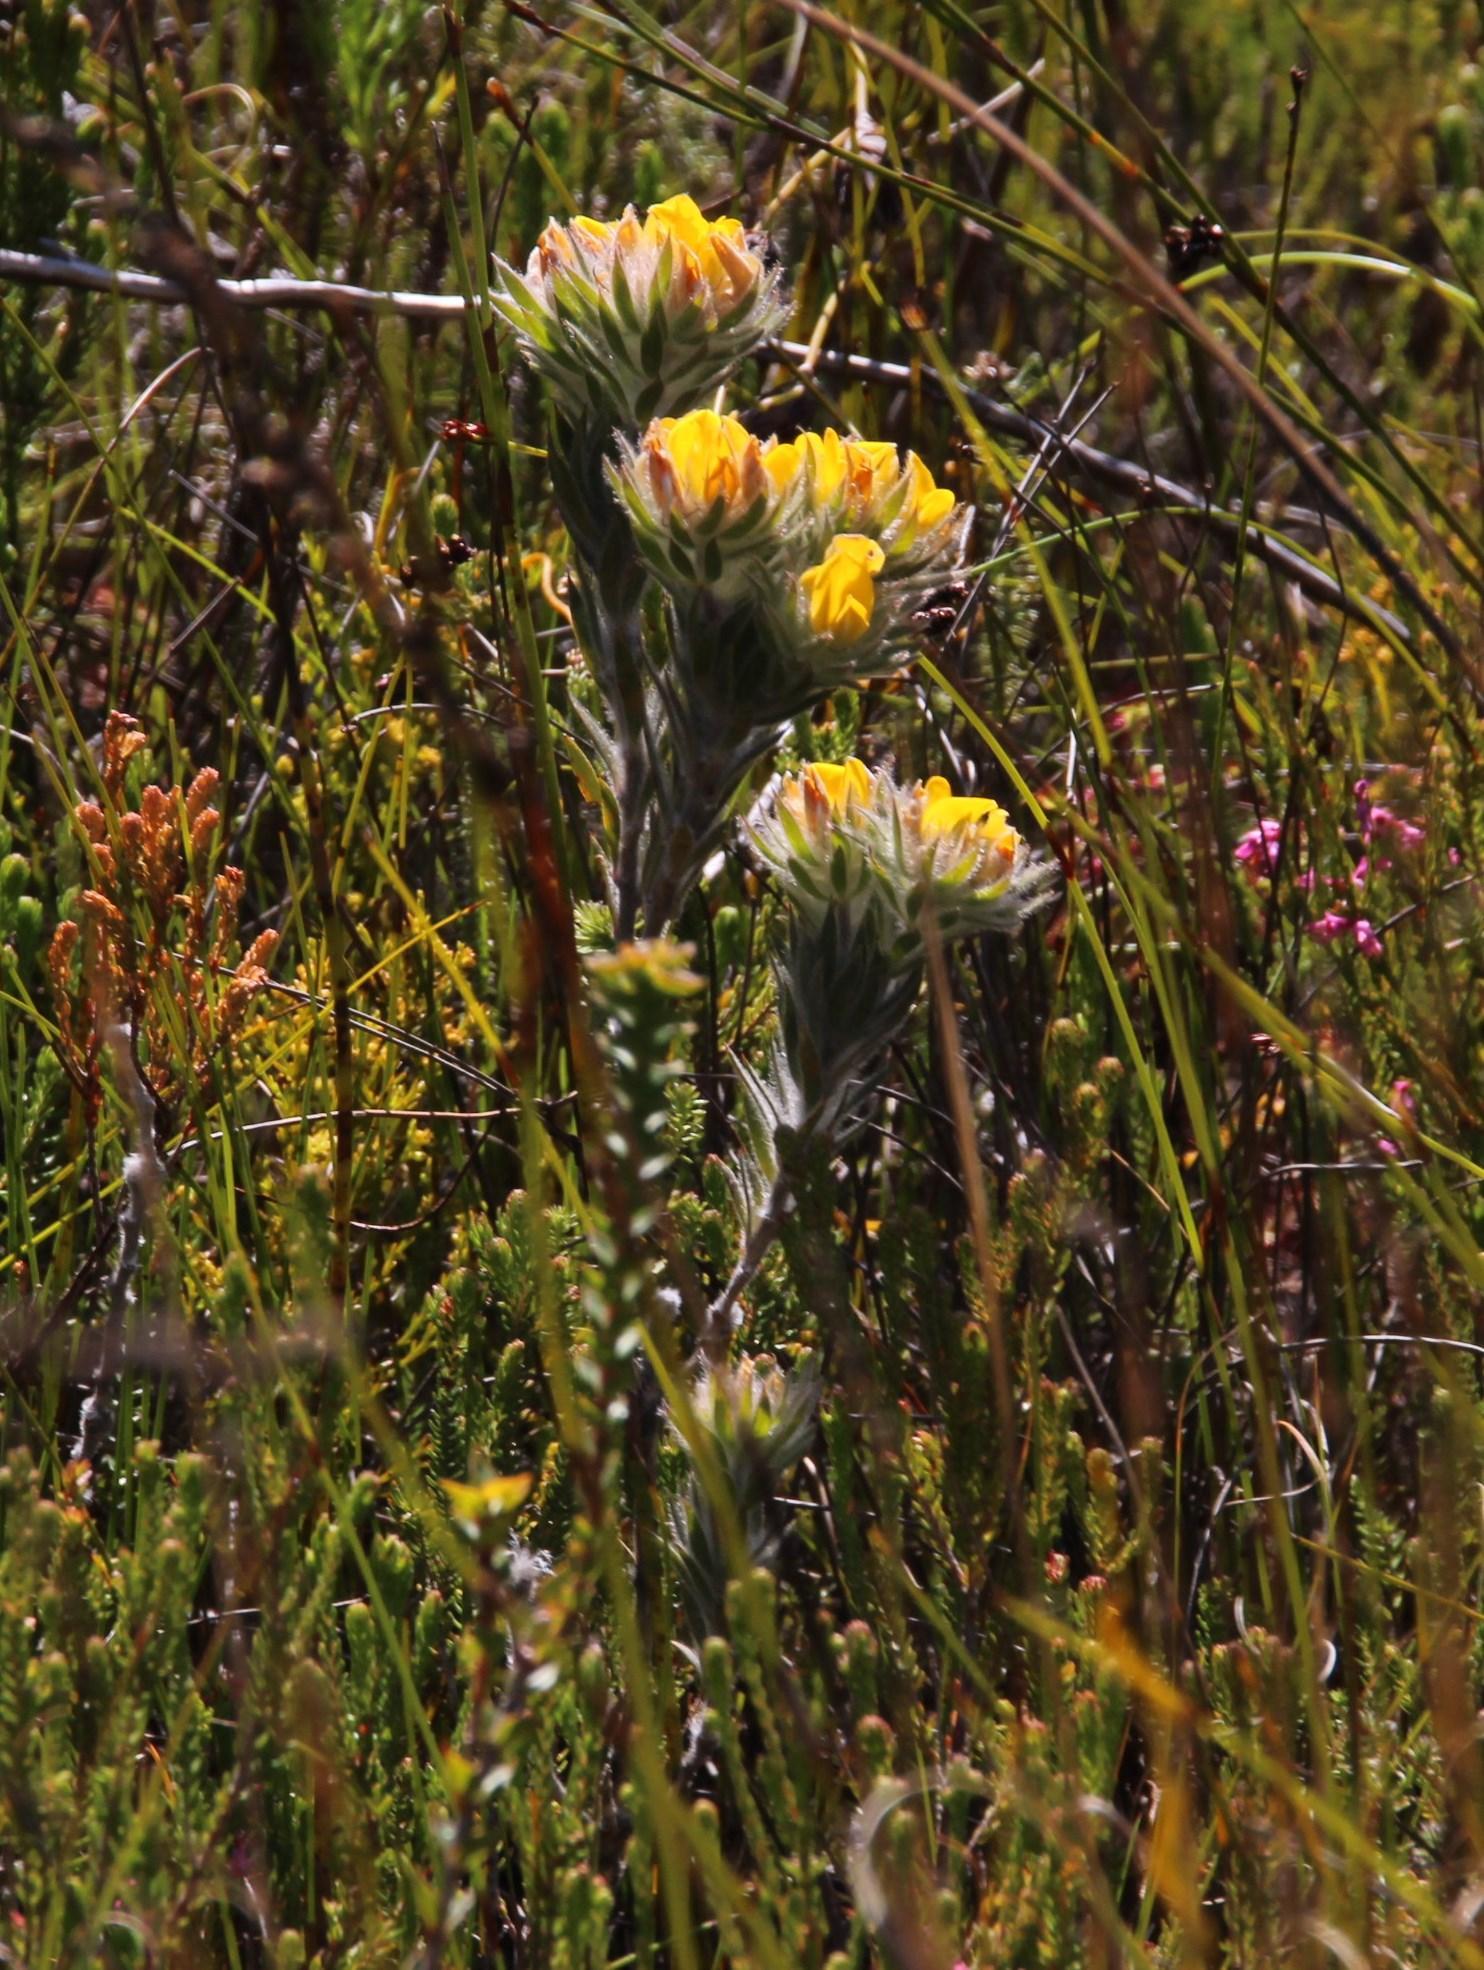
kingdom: Plantae
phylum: Tracheophyta
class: Magnoliopsida
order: Fabales
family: Fabaceae
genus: Aspalathus
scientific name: Aspalathus aspalathoides
